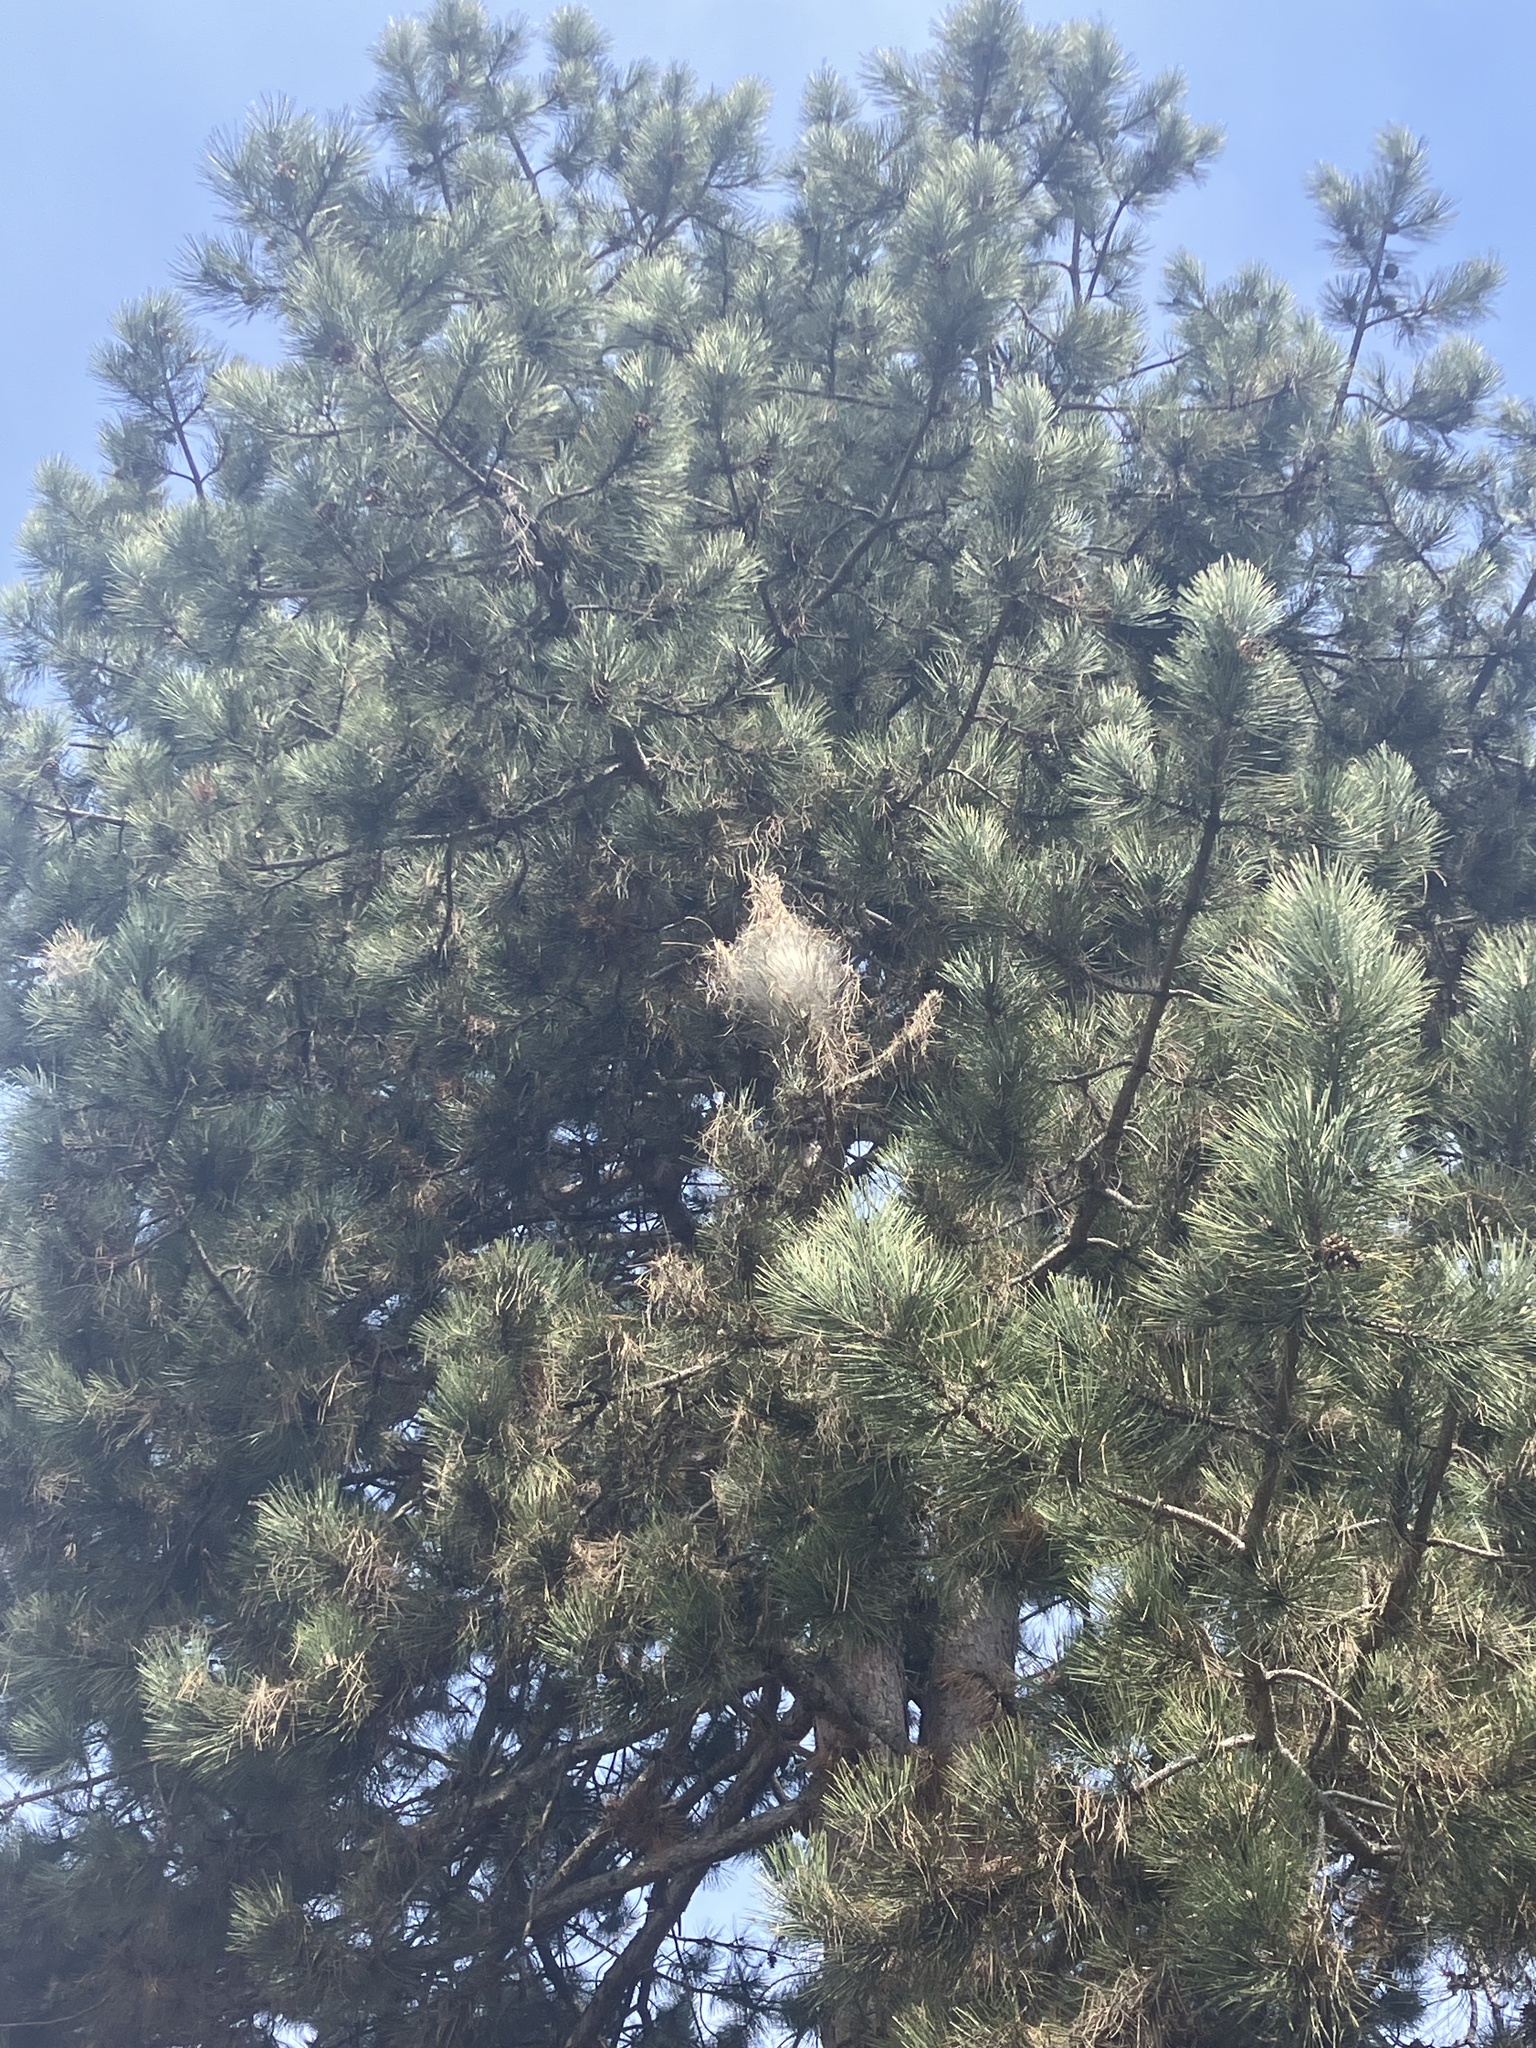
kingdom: Animalia
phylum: Arthropoda
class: Insecta
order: Lepidoptera
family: Notodontidae
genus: Thaumetopoea
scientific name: Thaumetopoea pityocampa
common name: Pine processionary
